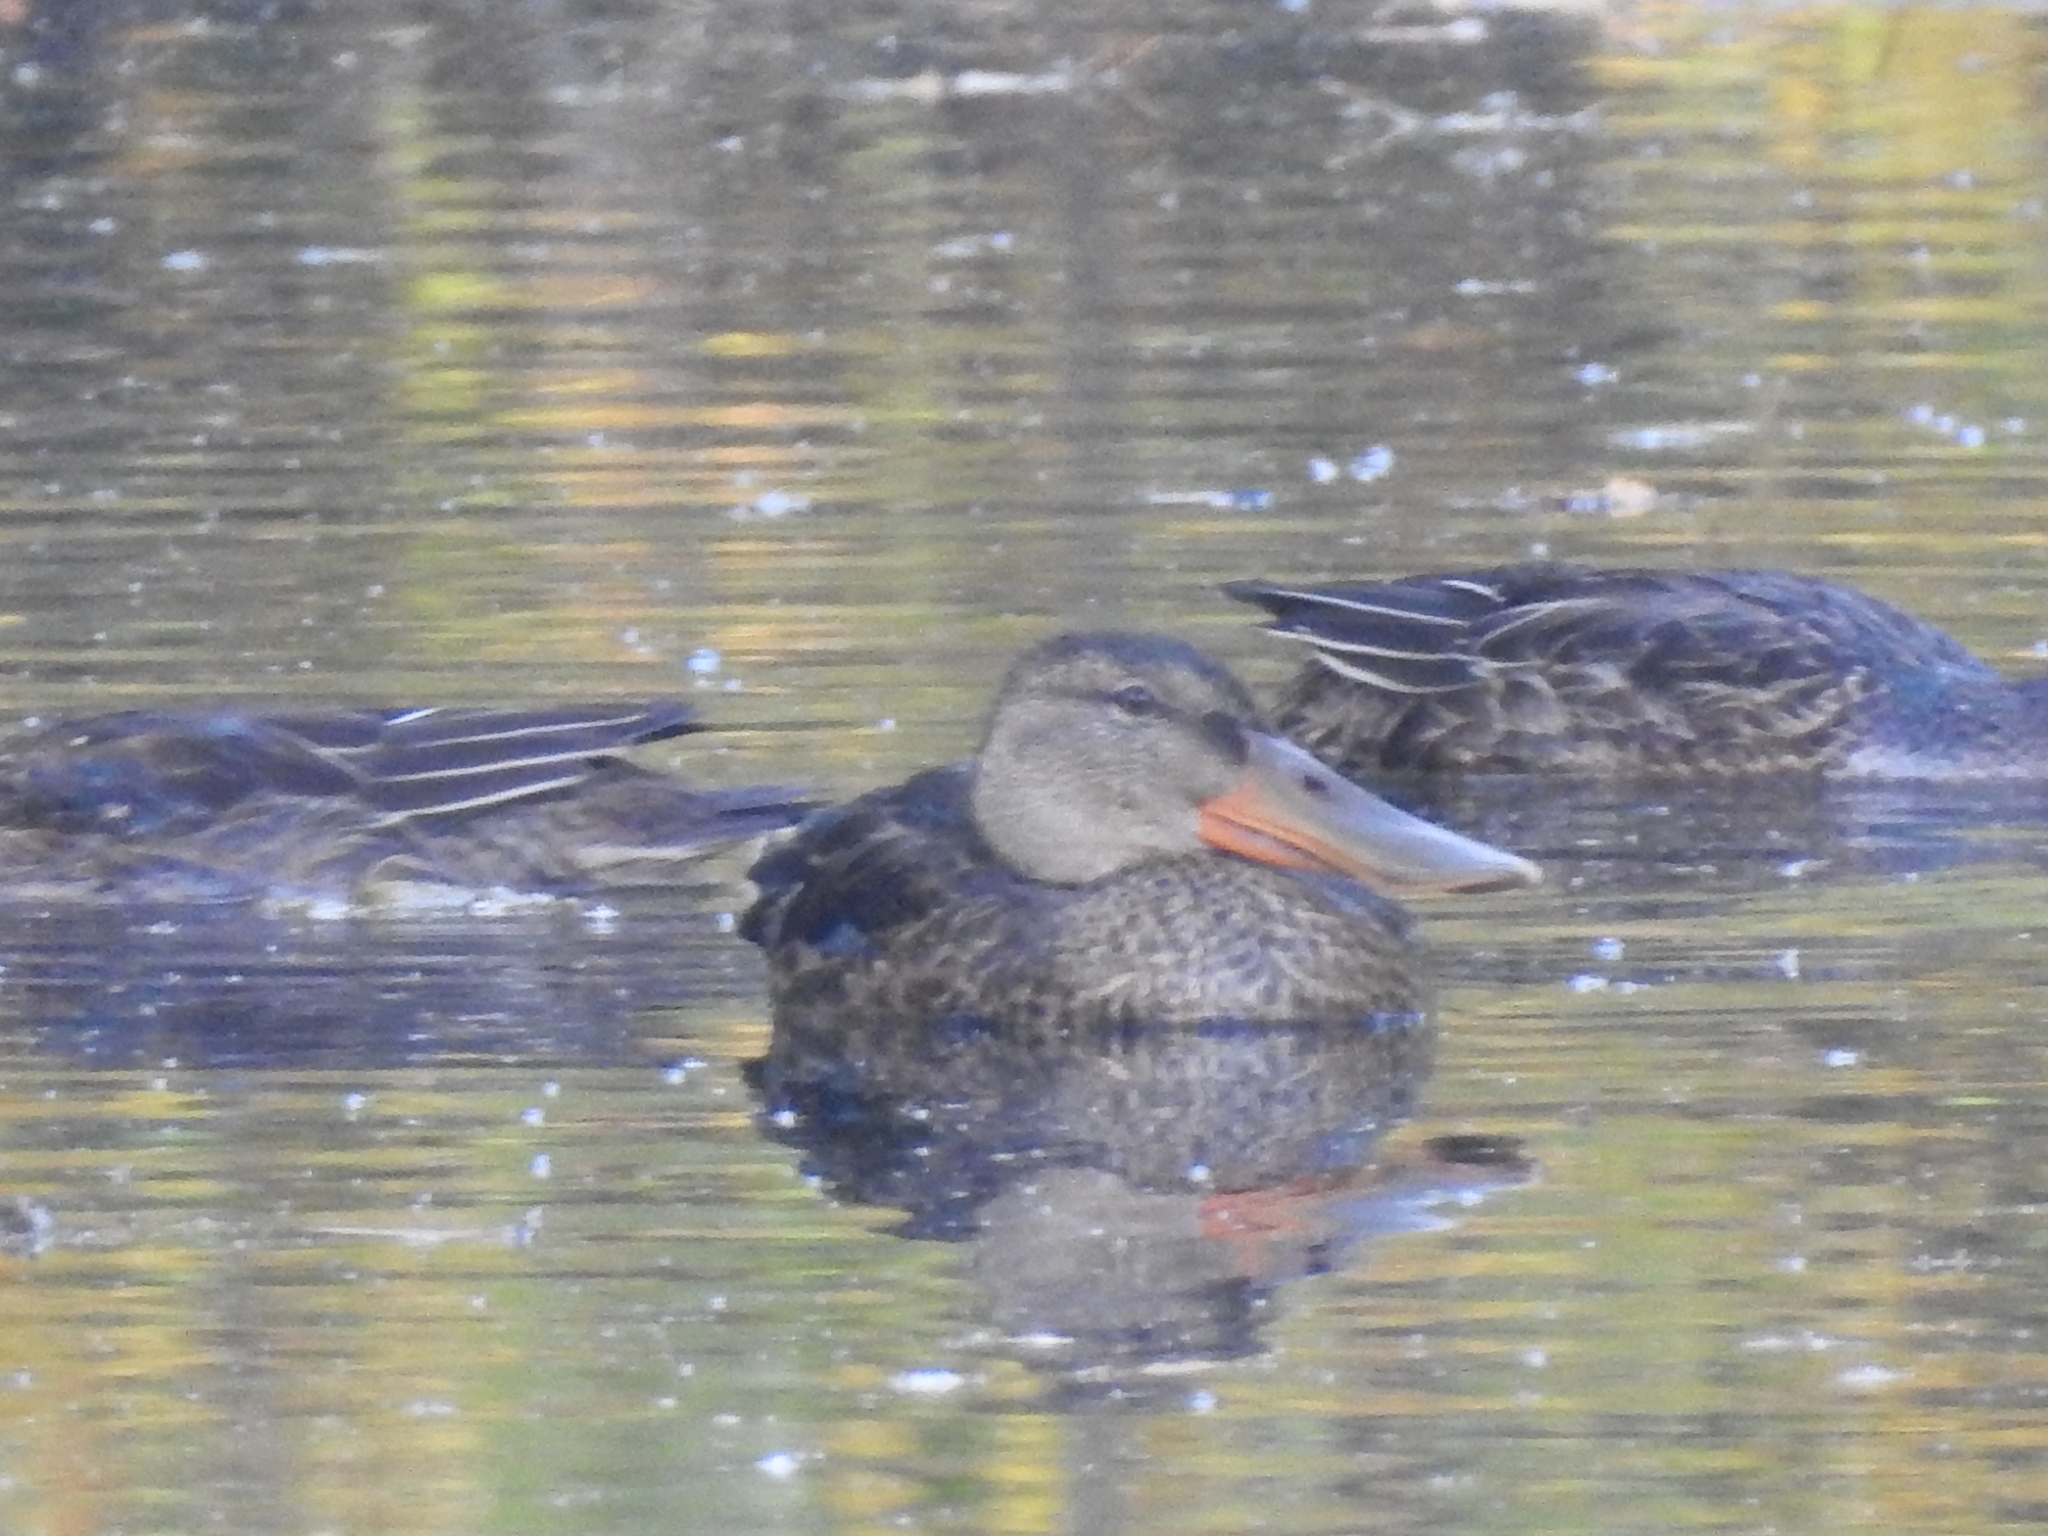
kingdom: Animalia
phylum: Chordata
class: Aves
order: Anseriformes
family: Anatidae
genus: Spatula
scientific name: Spatula clypeata
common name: Northern shoveler
